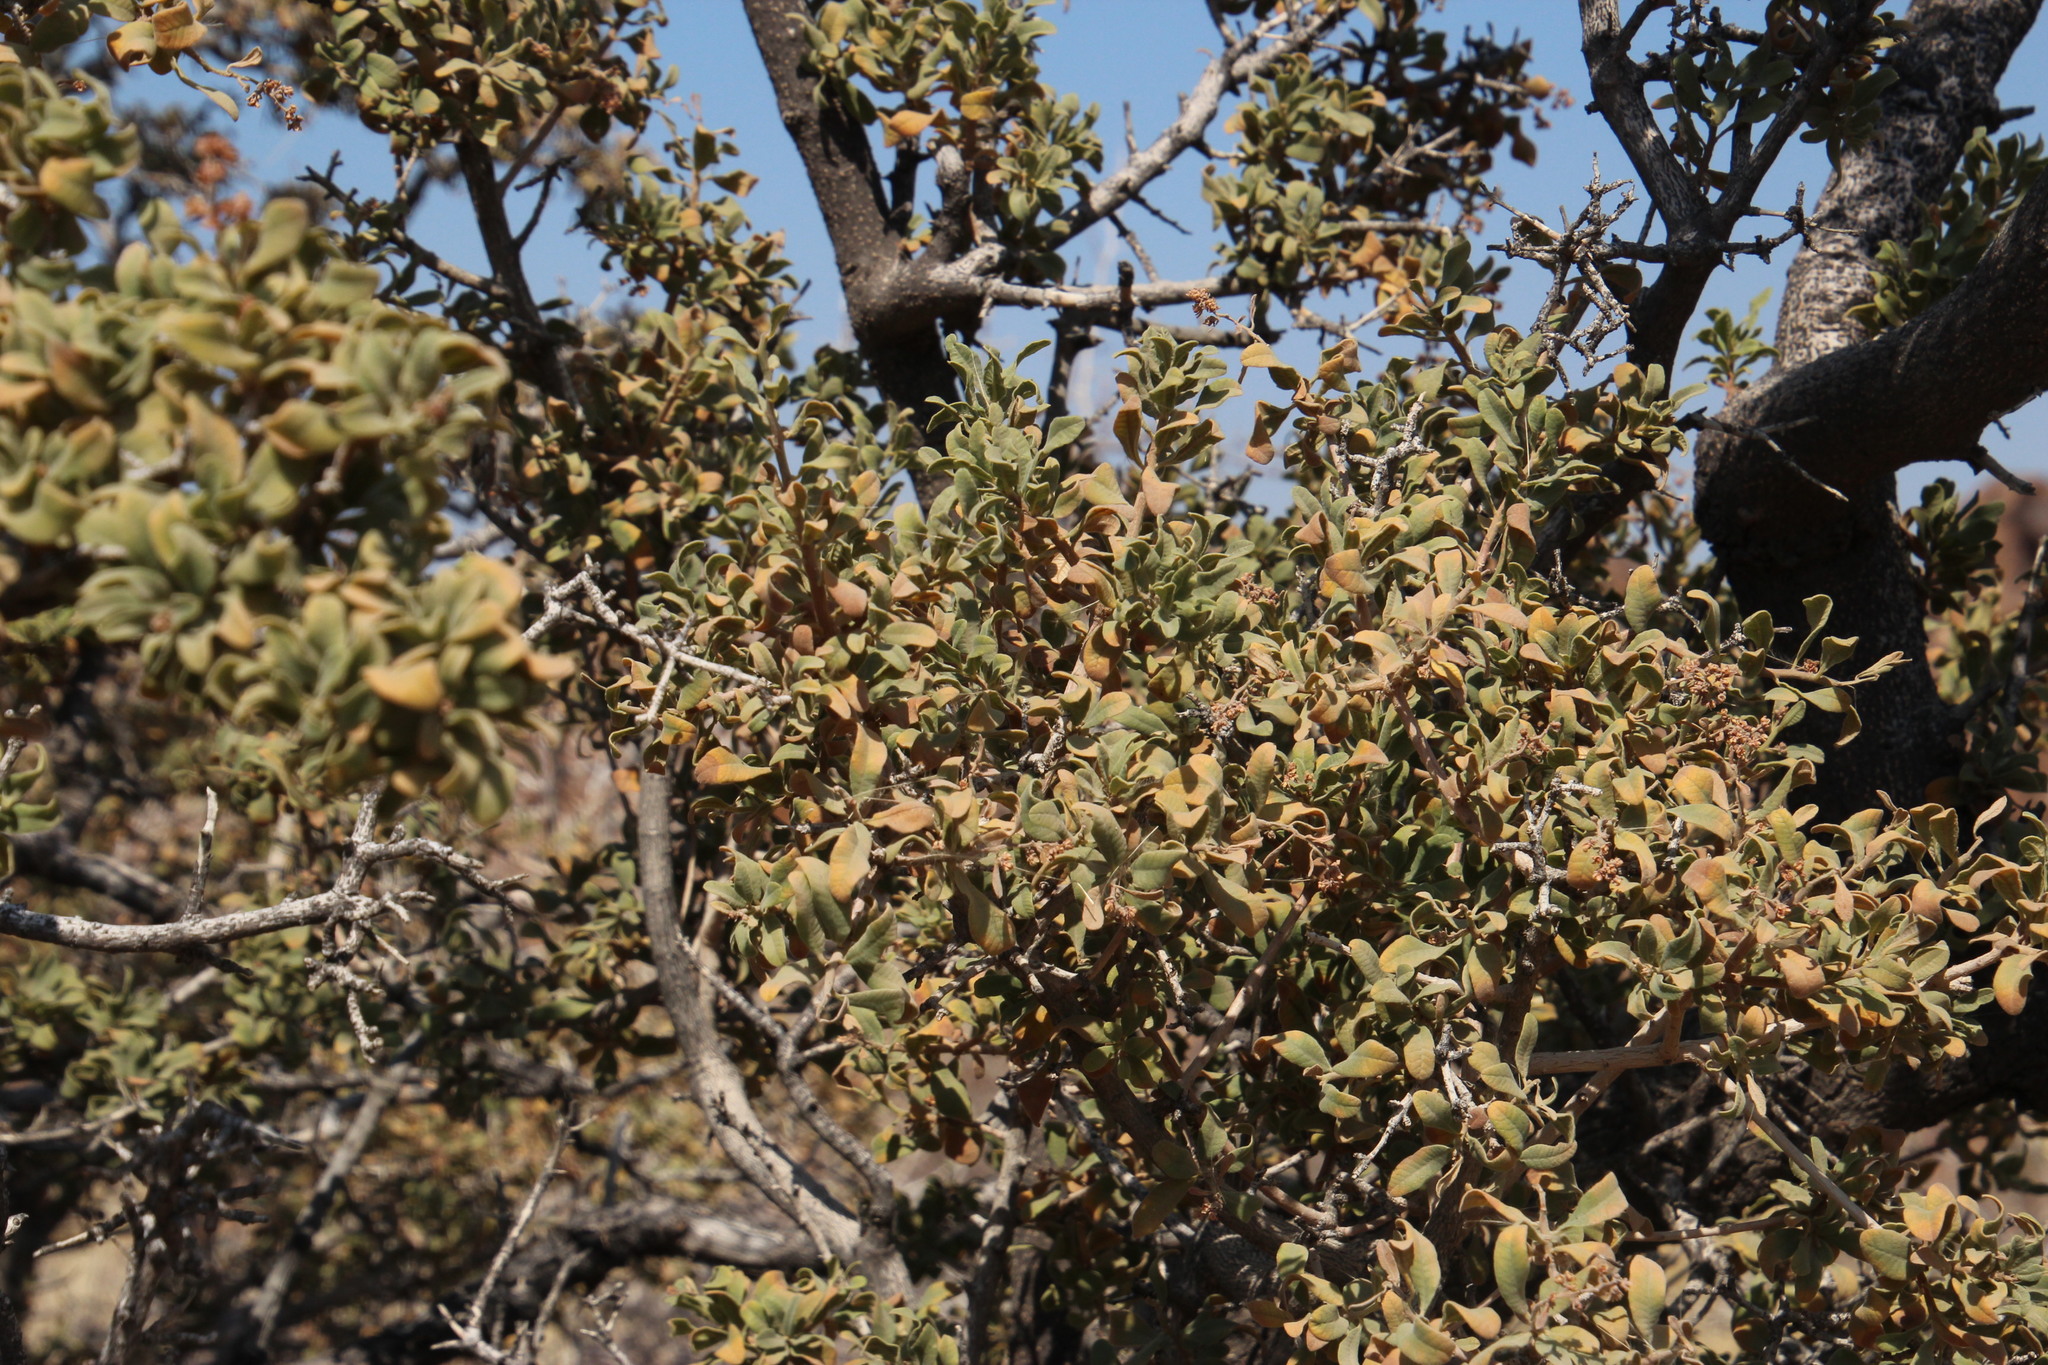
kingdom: Plantae
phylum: Tracheophyta
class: Magnoliopsida
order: Sapindales
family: Anacardiaceae
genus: Ozoroa
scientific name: Ozoroa namaensis
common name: Nama resin tree
